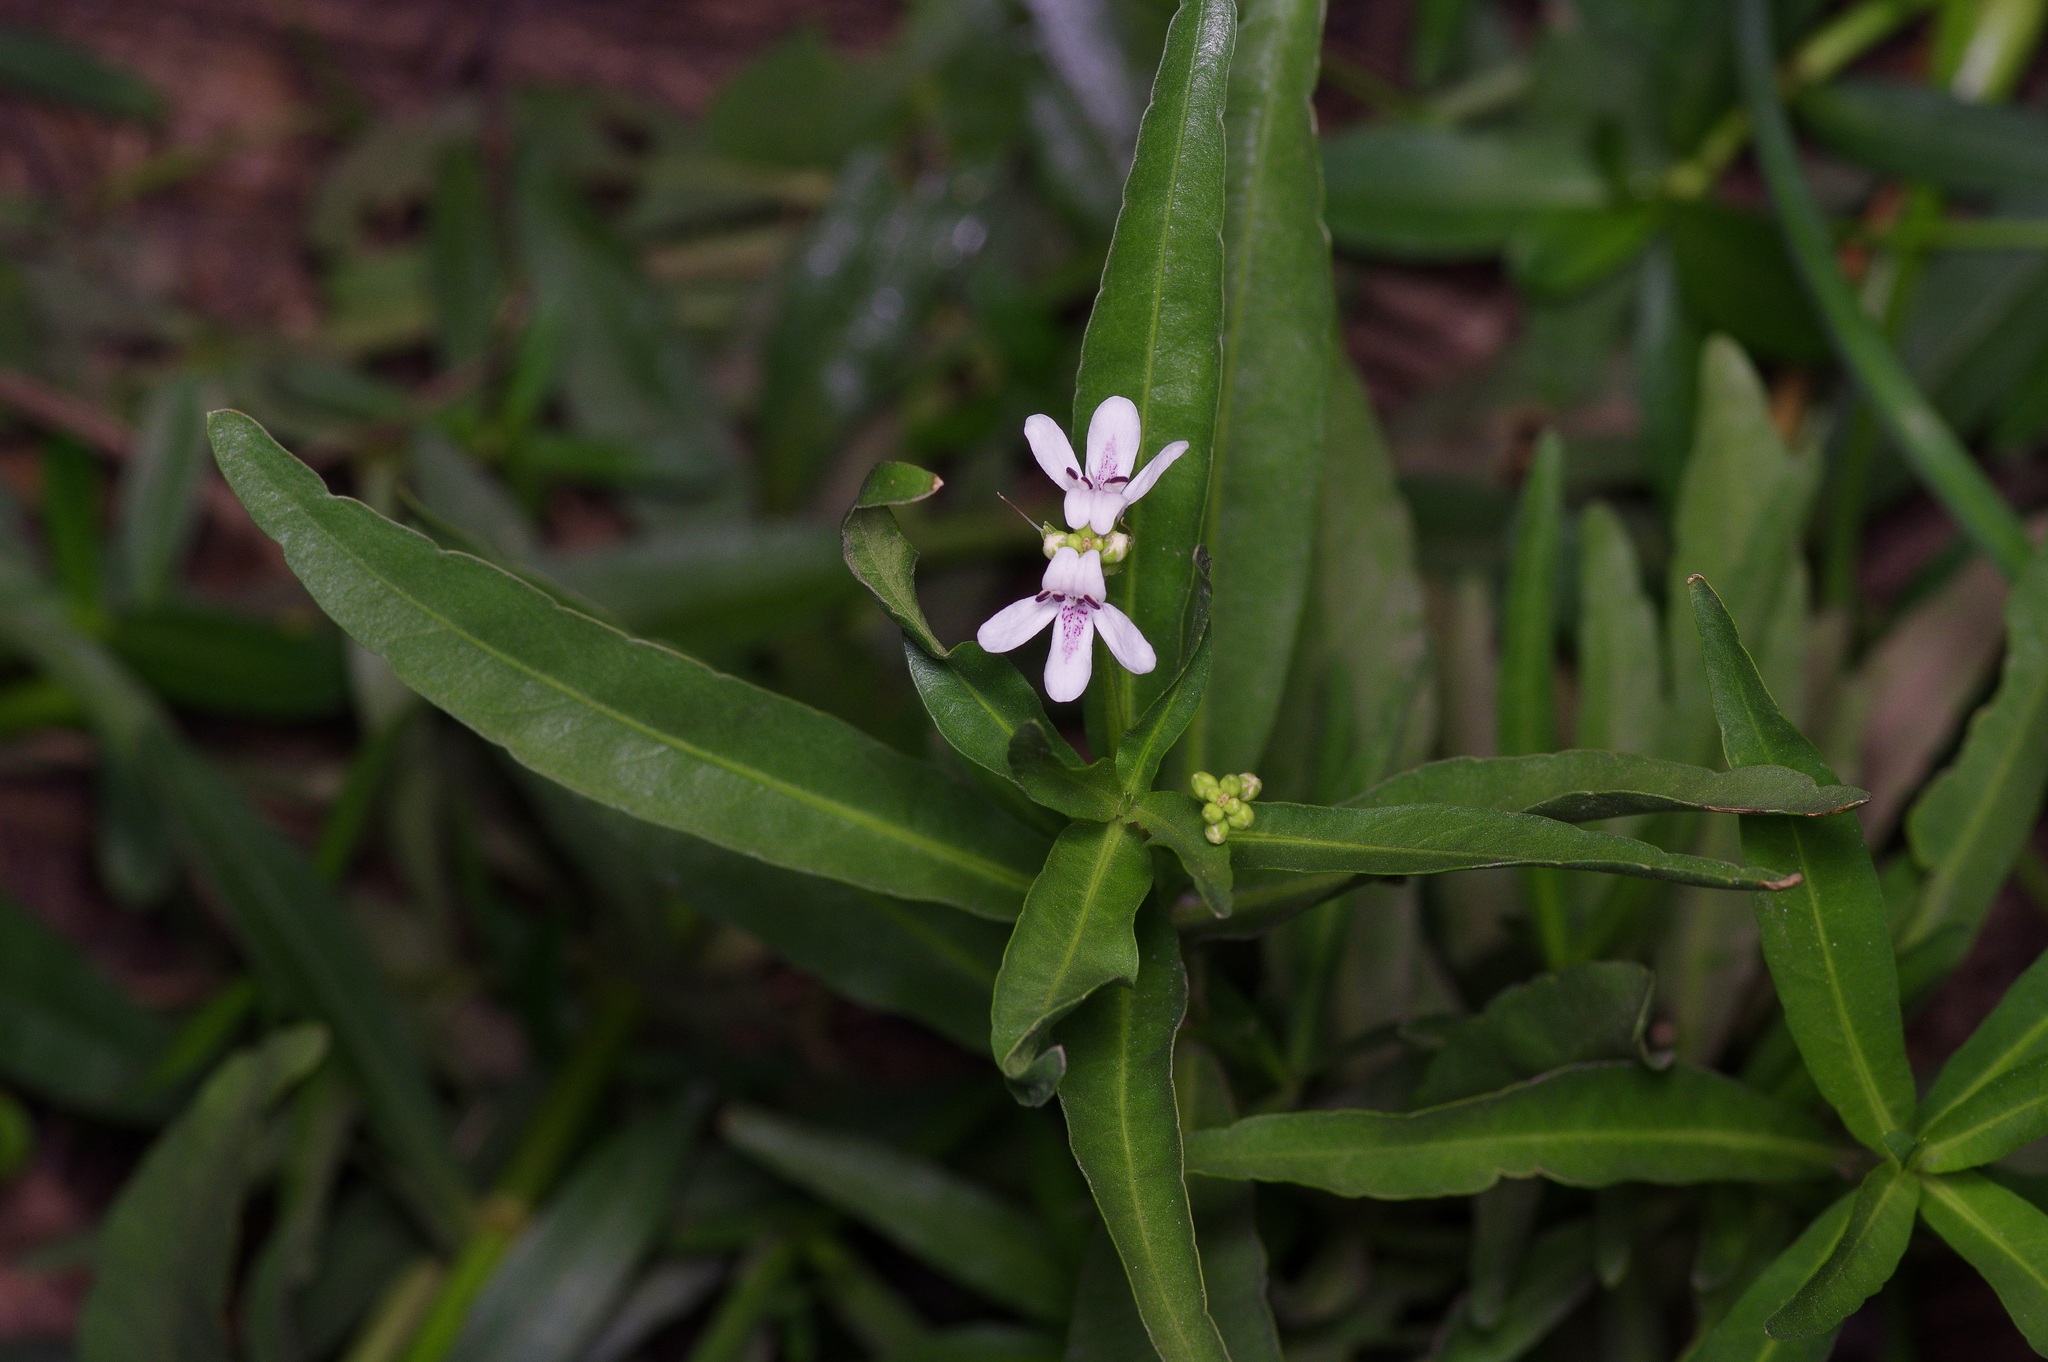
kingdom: Plantae
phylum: Tracheophyta
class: Magnoliopsida
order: Lamiales
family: Acanthaceae
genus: Dianthera
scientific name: Dianthera americana
